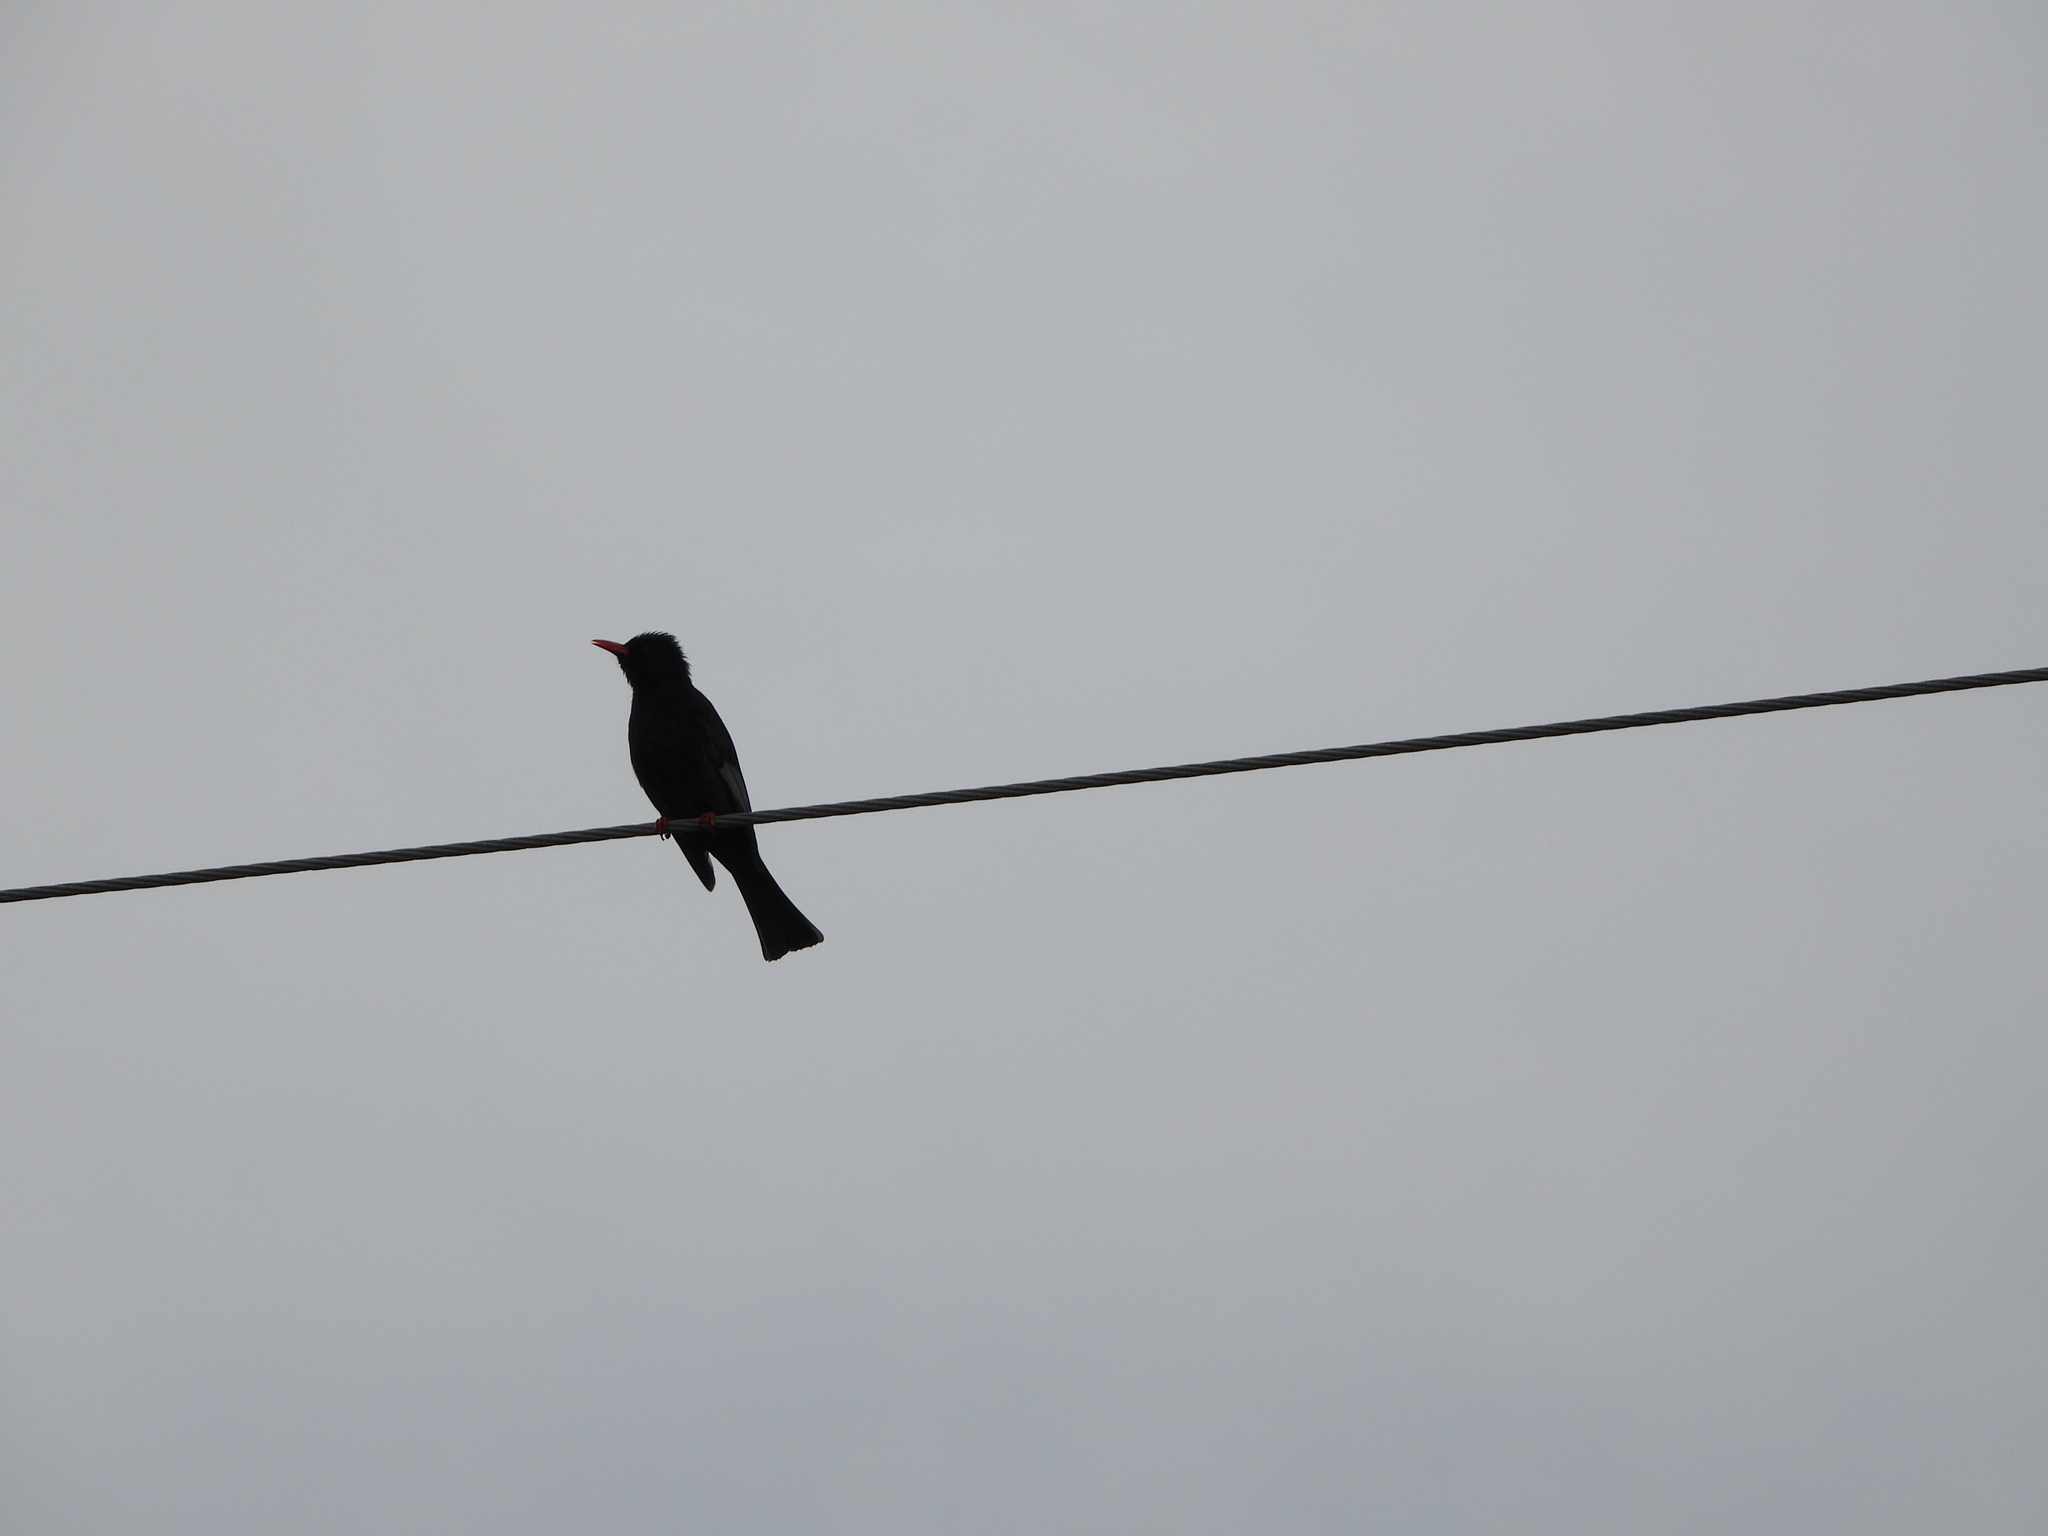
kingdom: Animalia
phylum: Chordata
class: Aves
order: Passeriformes
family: Pycnonotidae
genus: Hypsipetes
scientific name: Hypsipetes leucocephalus
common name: Black bulbul
